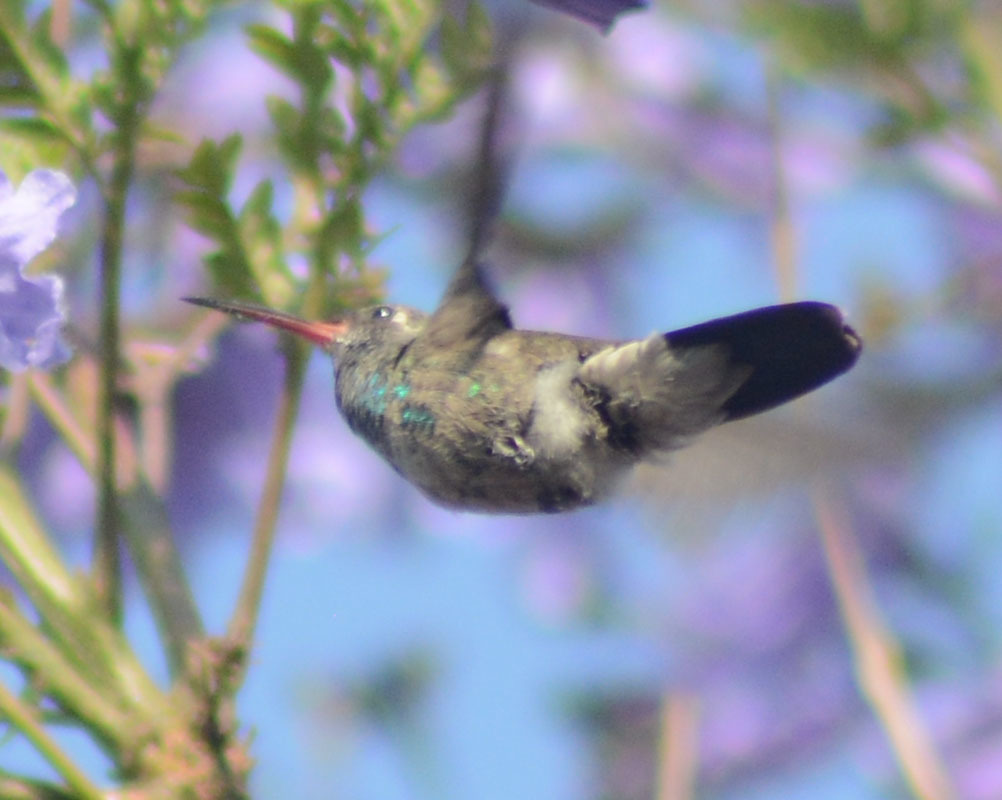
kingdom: Animalia
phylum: Chordata
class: Aves
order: Apodiformes
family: Trochilidae
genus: Cynanthus
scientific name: Cynanthus latirostris
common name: Broad-billed hummingbird
